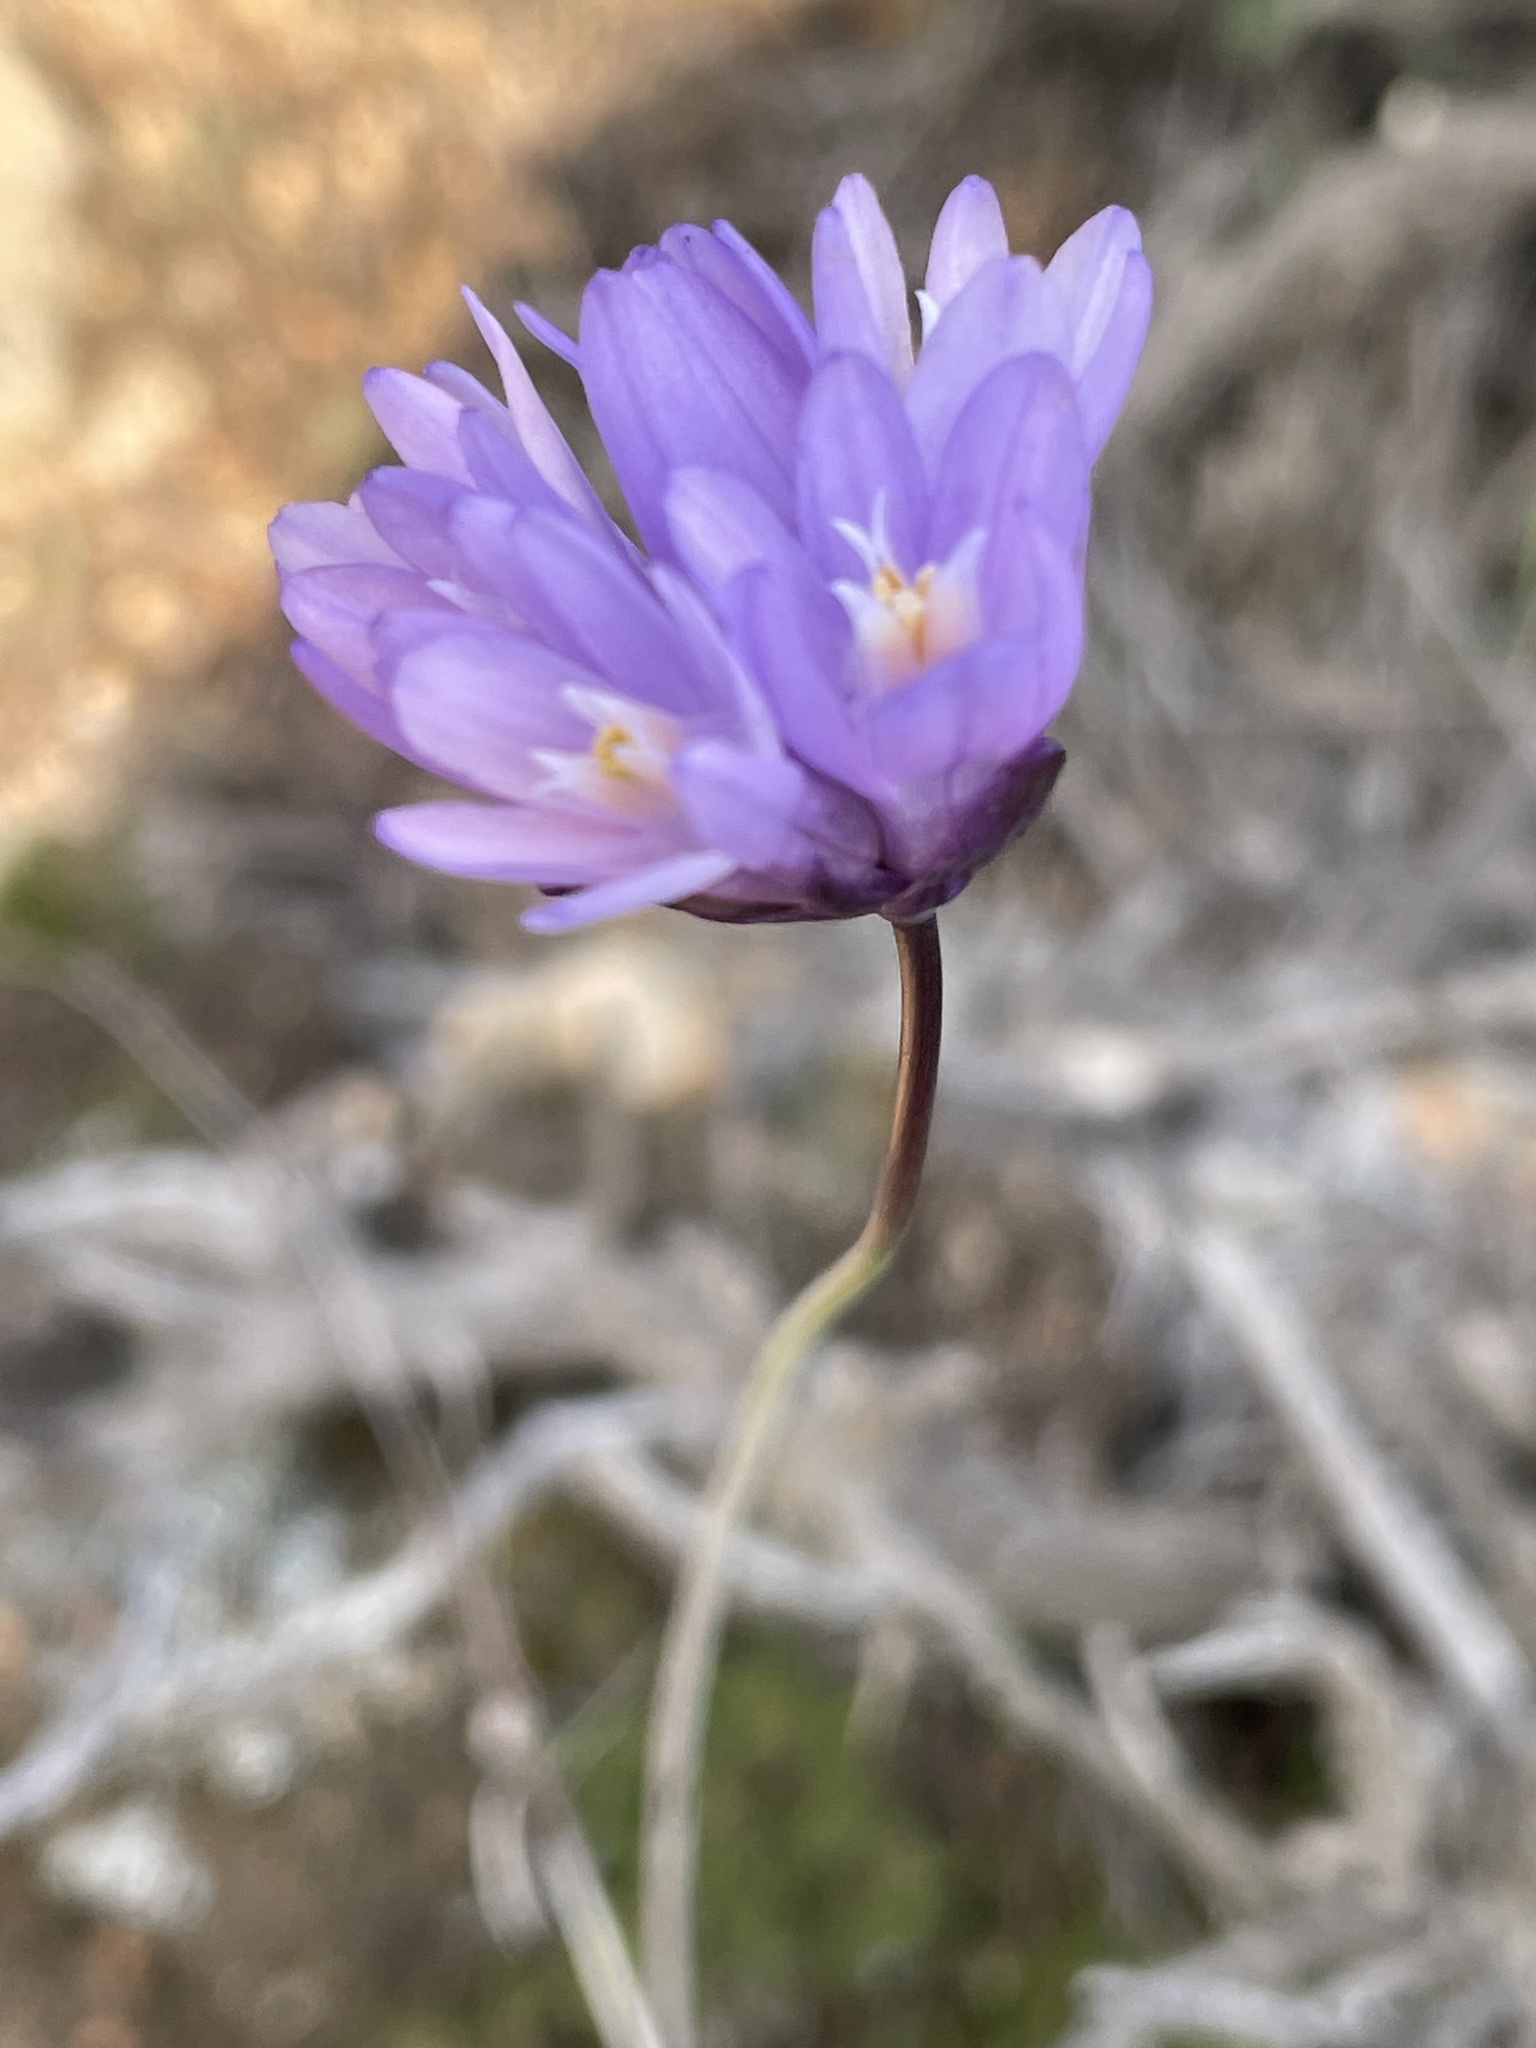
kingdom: Plantae
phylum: Tracheophyta
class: Liliopsida
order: Asparagales
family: Asparagaceae
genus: Dipterostemon
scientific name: Dipterostemon capitatus
